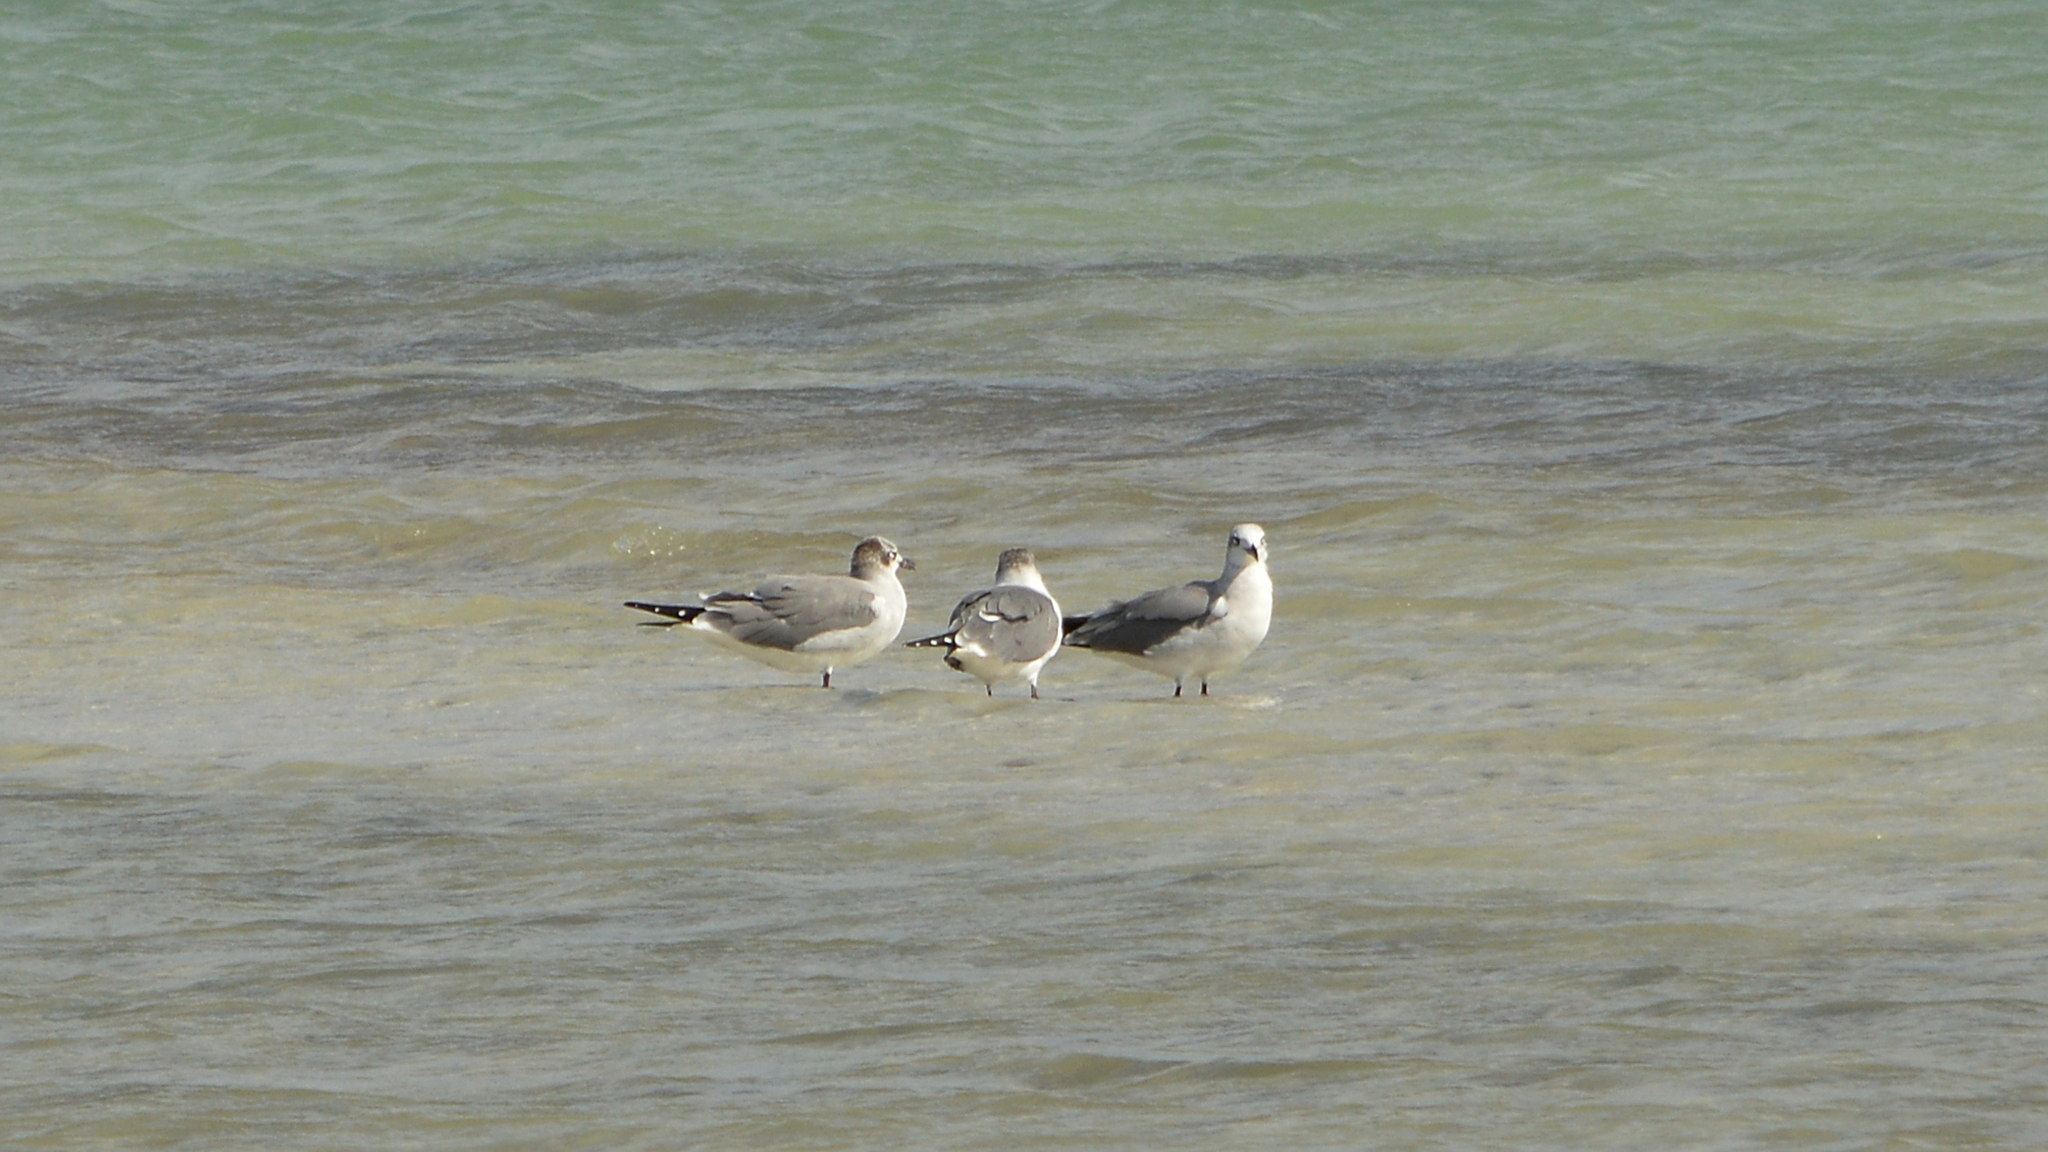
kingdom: Animalia
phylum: Chordata
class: Aves
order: Charadriiformes
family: Laridae
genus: Leucophaeus
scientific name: Leucophaeus atricilla
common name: Laughing gull
